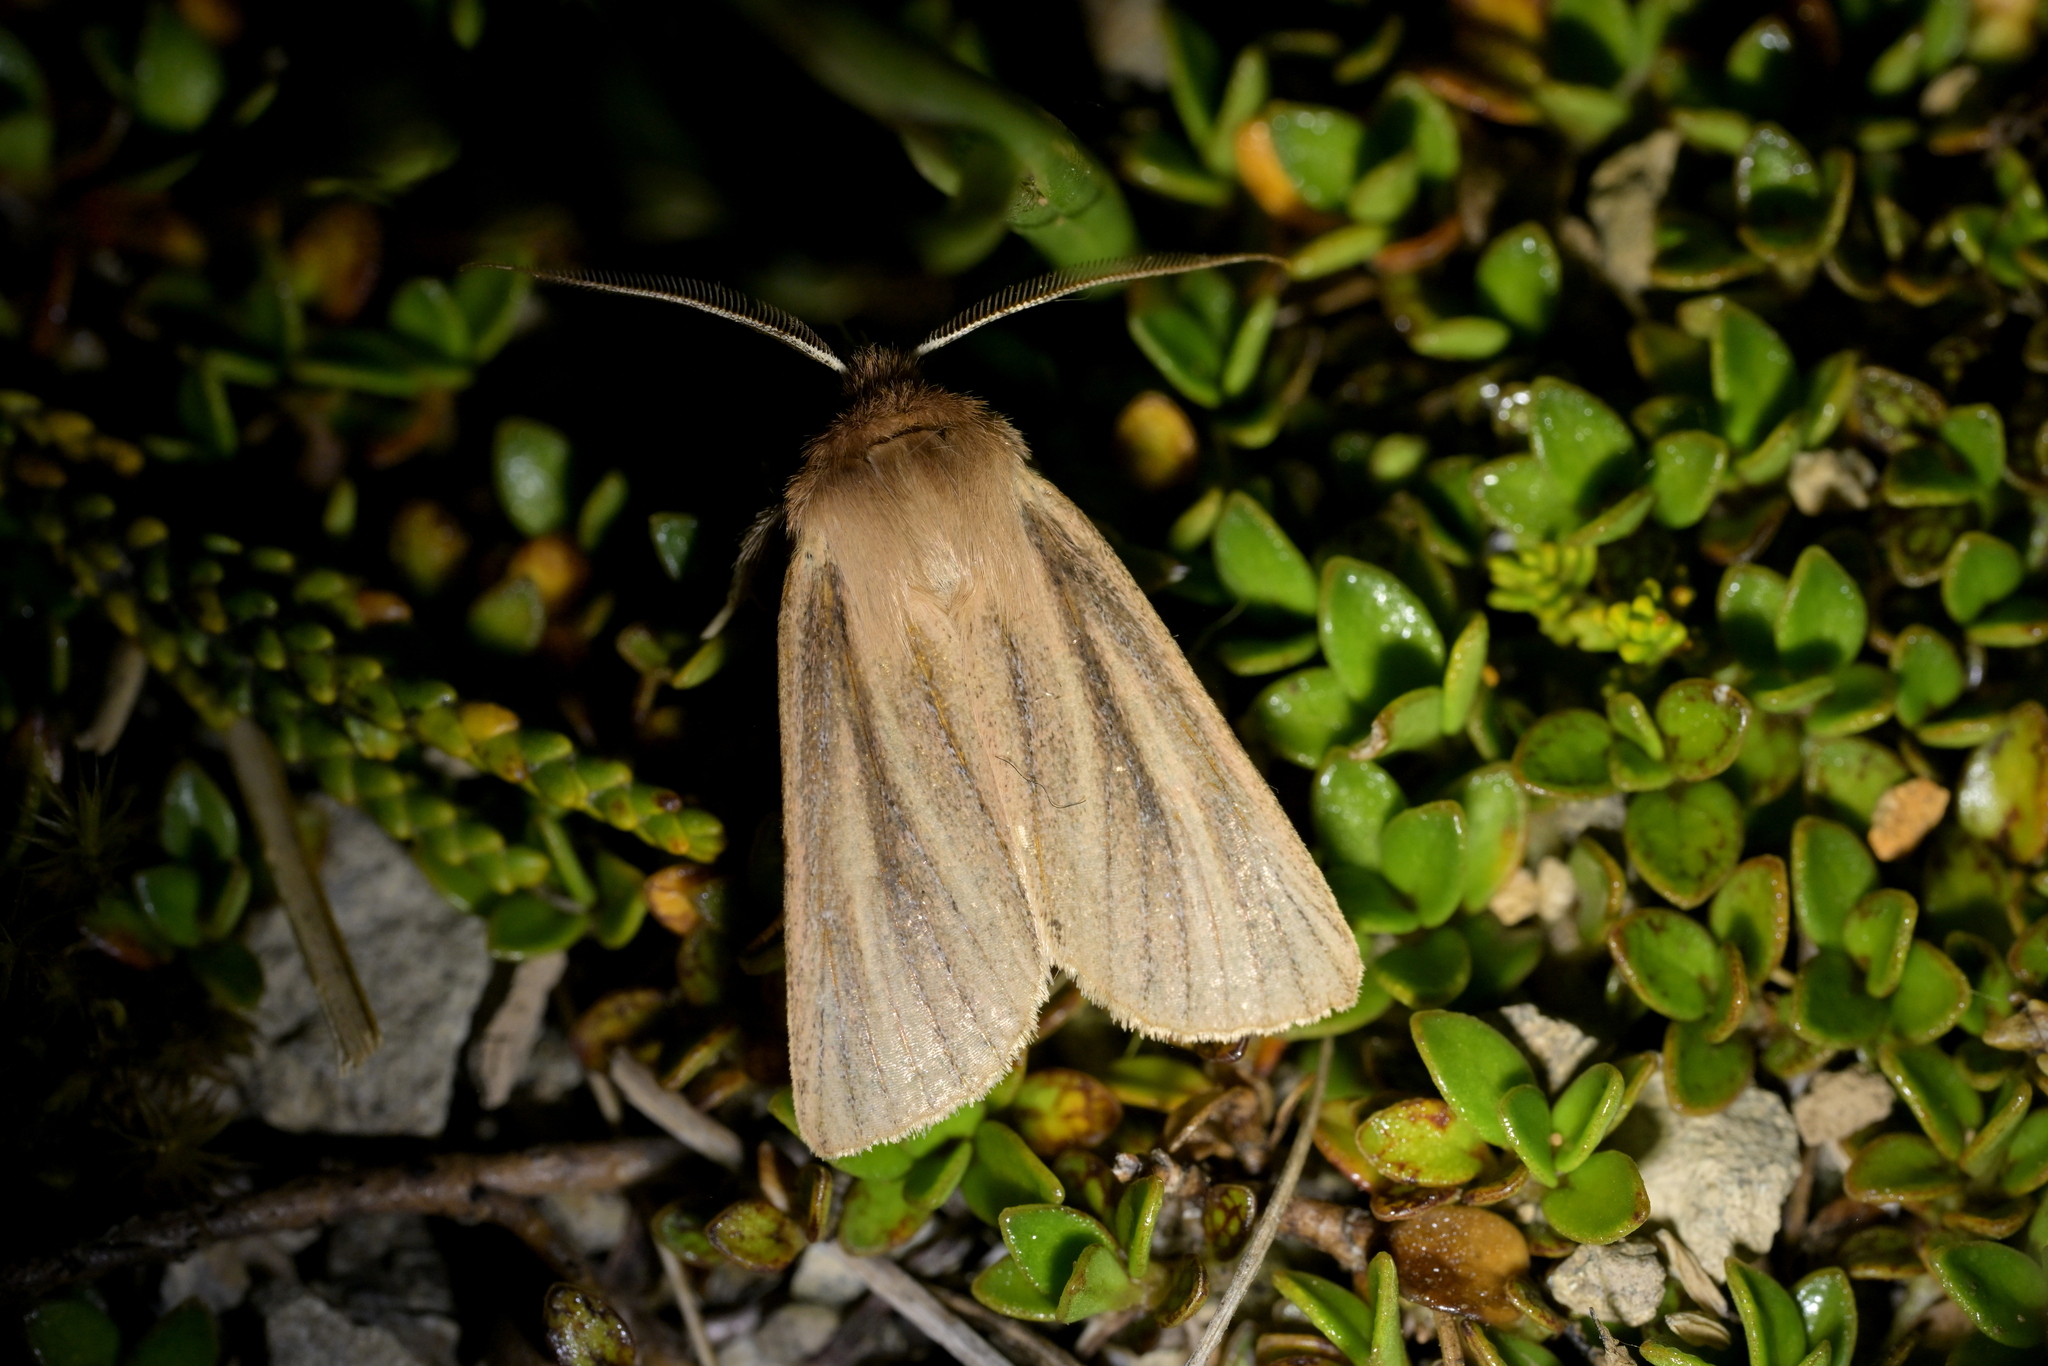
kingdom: Animalia
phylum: Arthropoda
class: Insecta
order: Lepidoptera
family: Noctuidae
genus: Ichneutica
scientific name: Ichneutica
